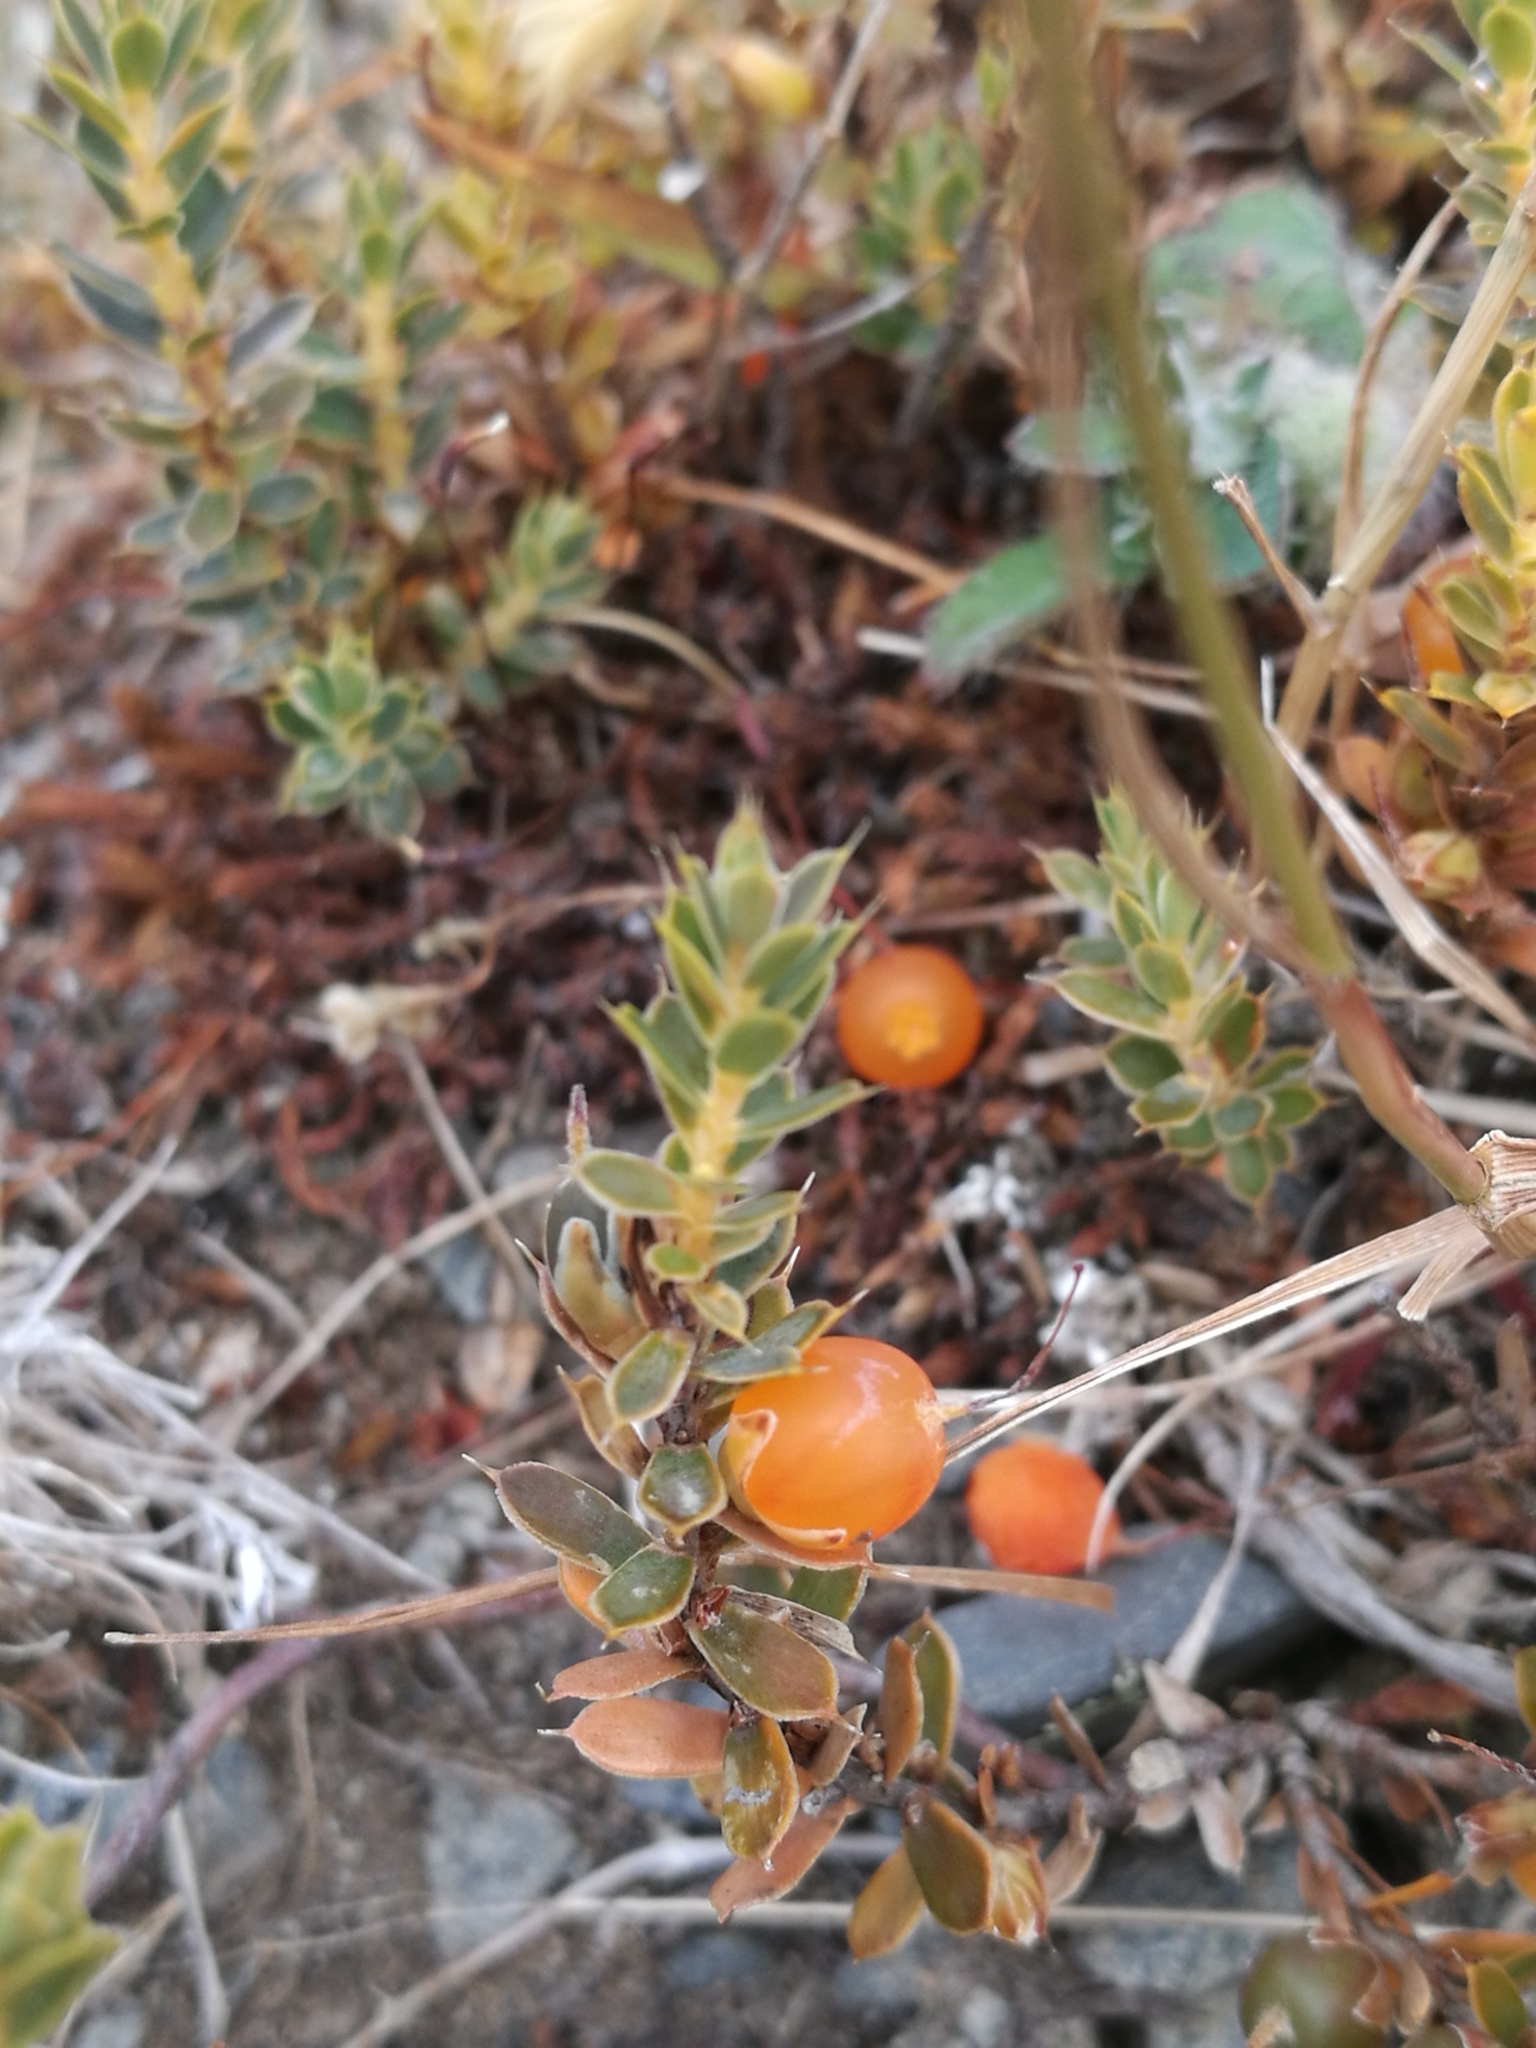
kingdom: Plantae
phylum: Tracheophyta
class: Magnoliopsida
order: Ericales
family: Ericaceae
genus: Styphelia
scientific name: Styphelia nesophila
